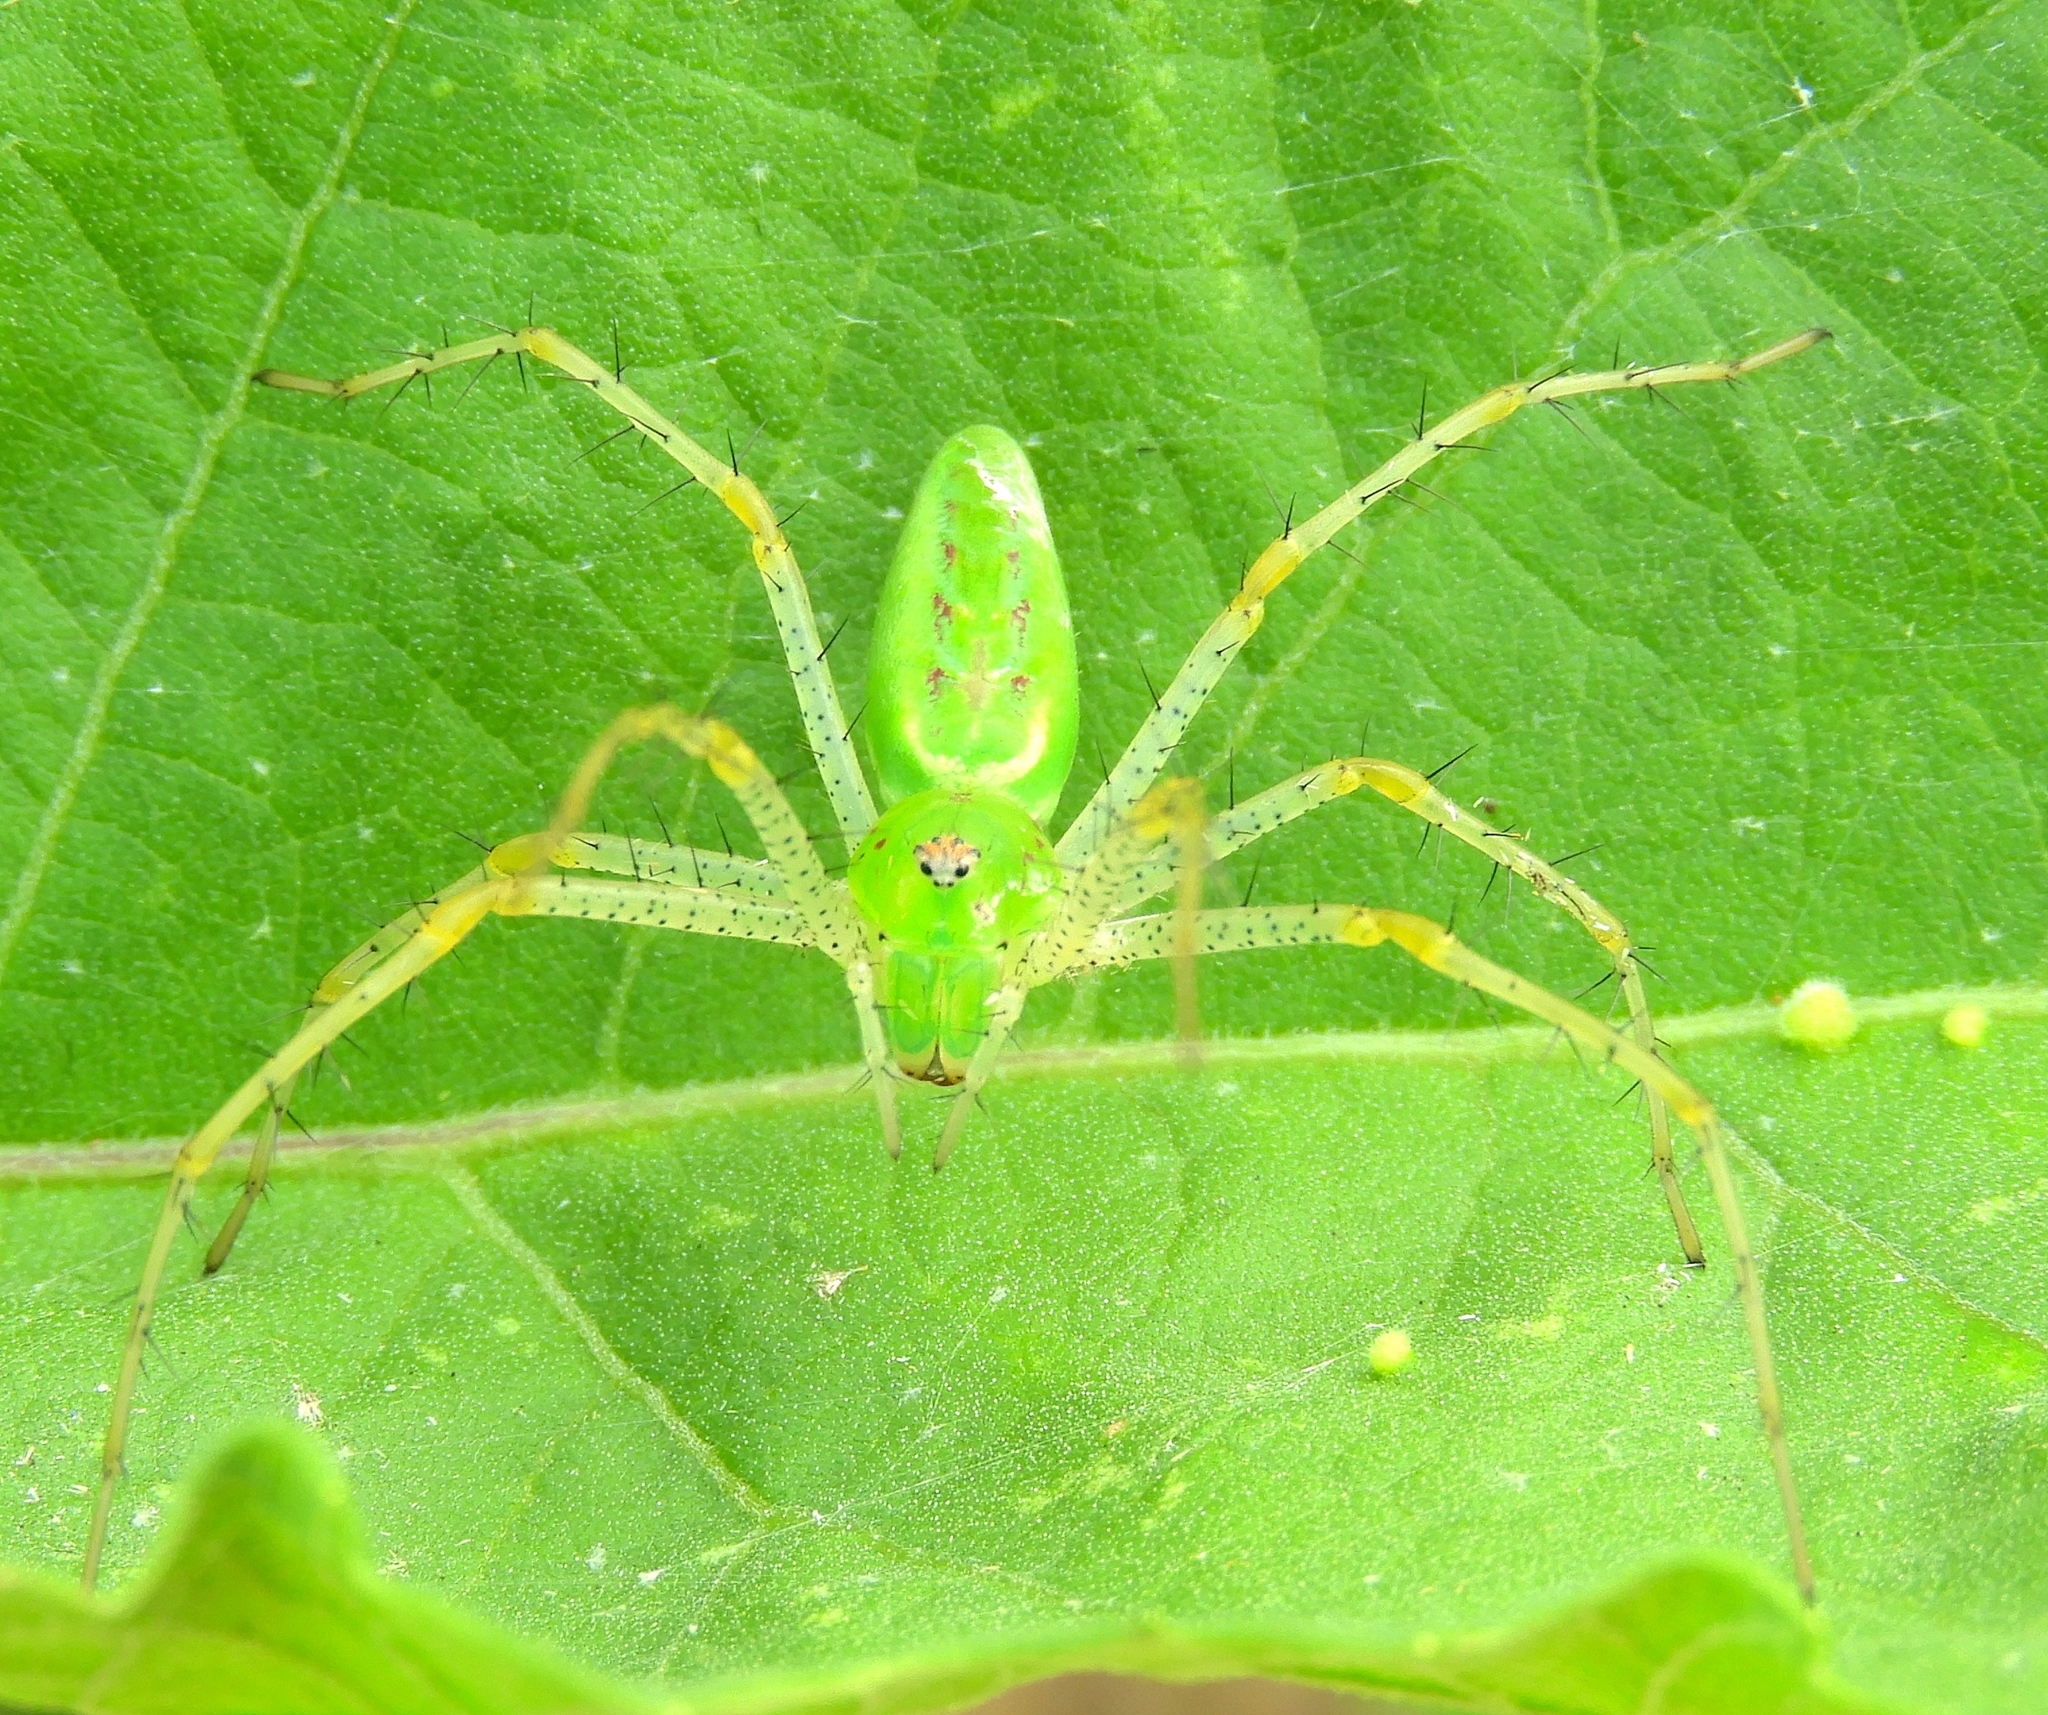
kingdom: Animalia
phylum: Arthropoda
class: Arachnida
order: Araneae
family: Oxyopidae
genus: Peucetia
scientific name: Peucetia
